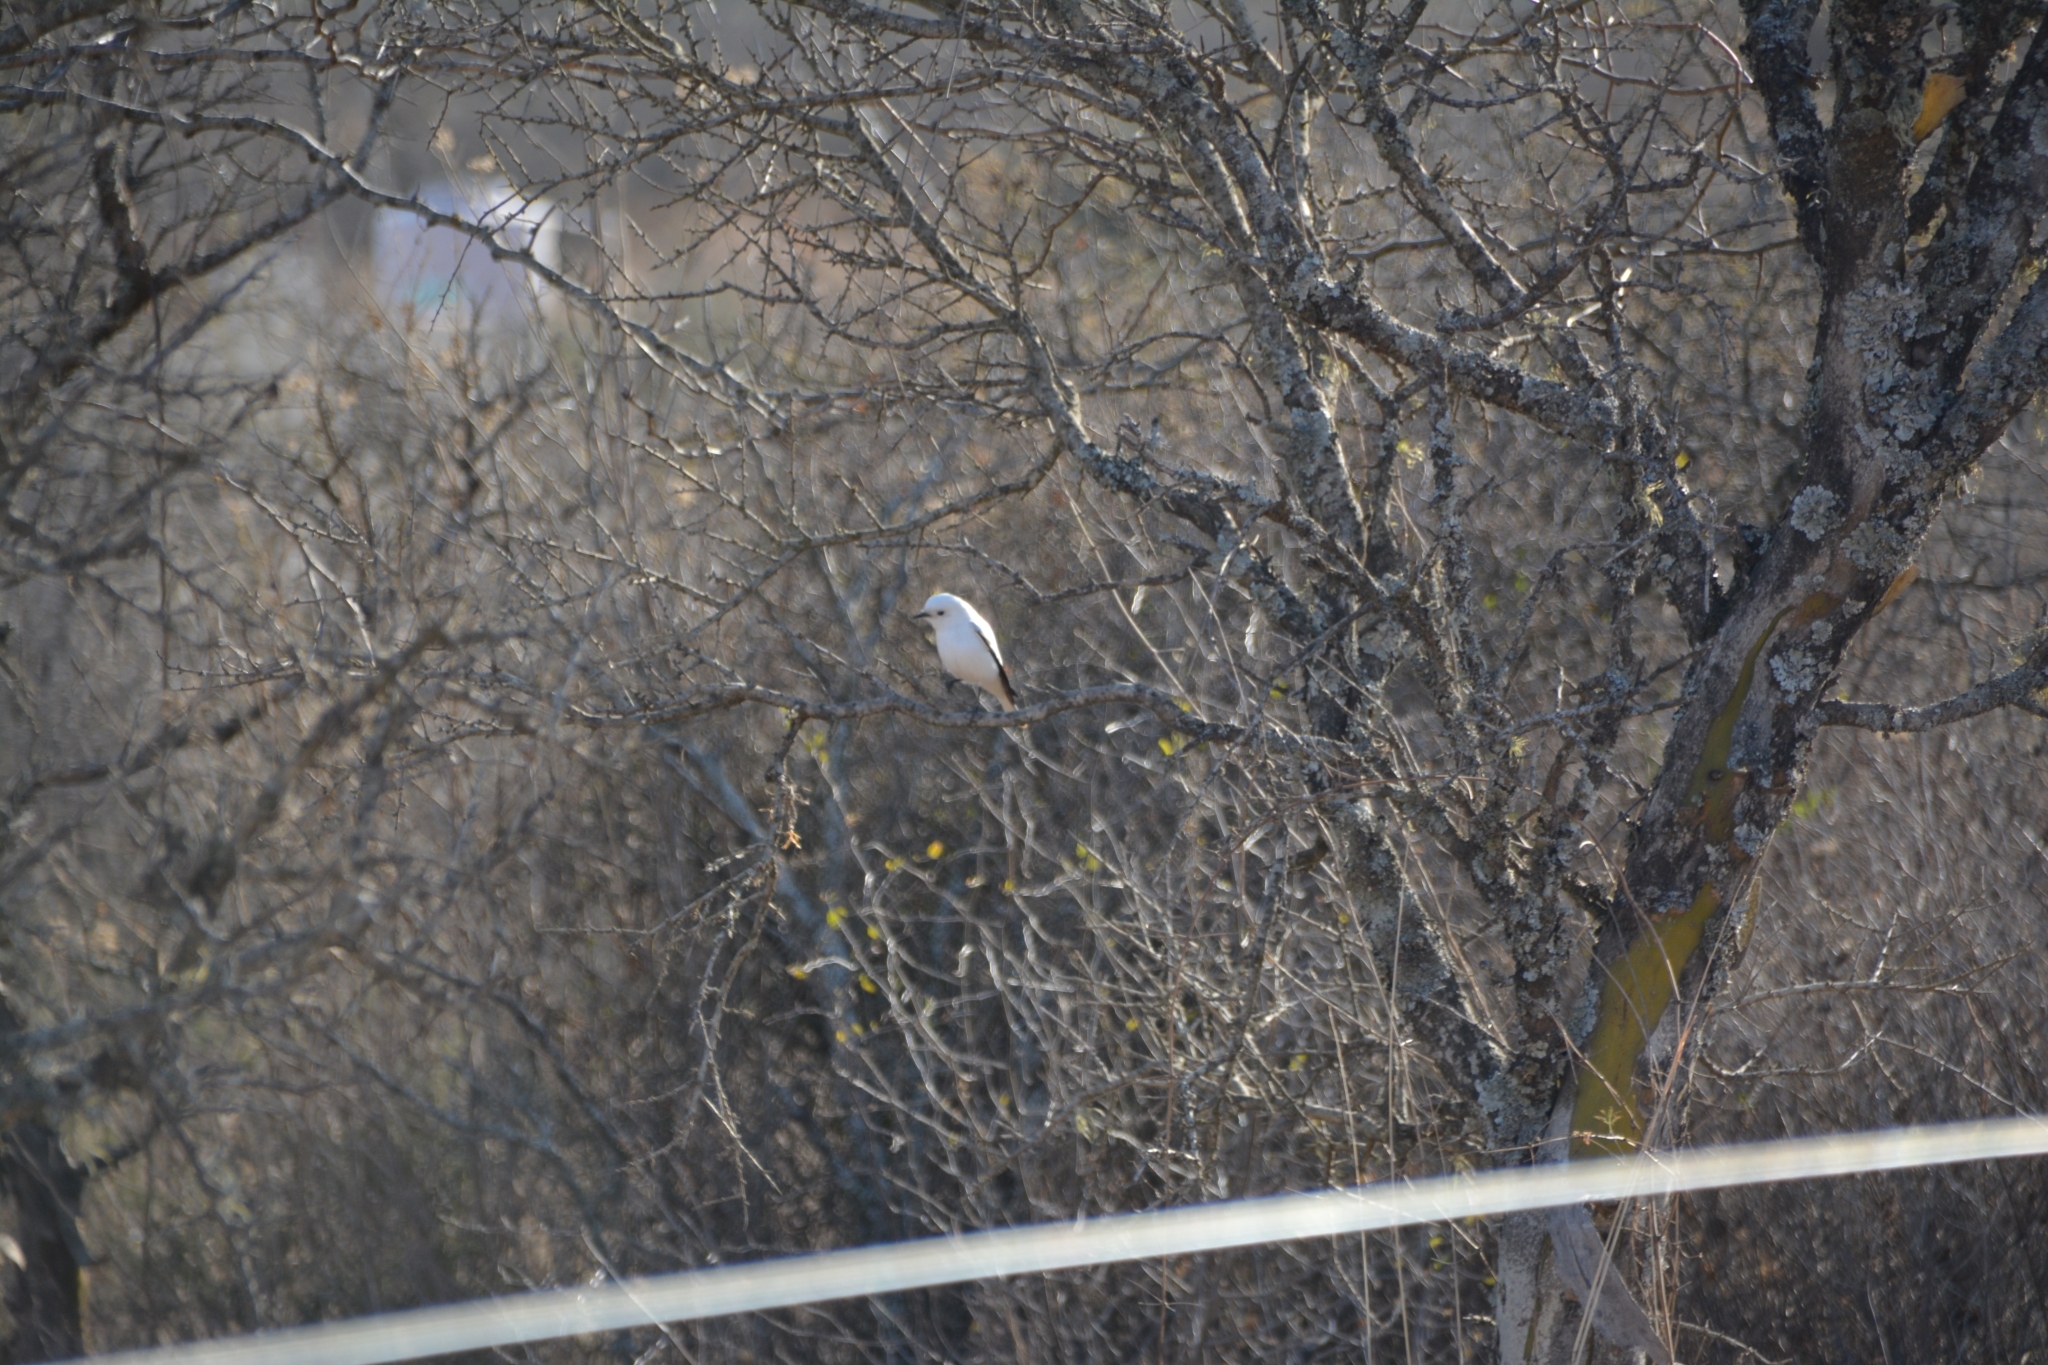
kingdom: Animalia
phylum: Chordata
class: Aves
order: Passeriformes
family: Tyrannidae
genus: Xolmis
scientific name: Xolmis irupero
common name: White monjita
